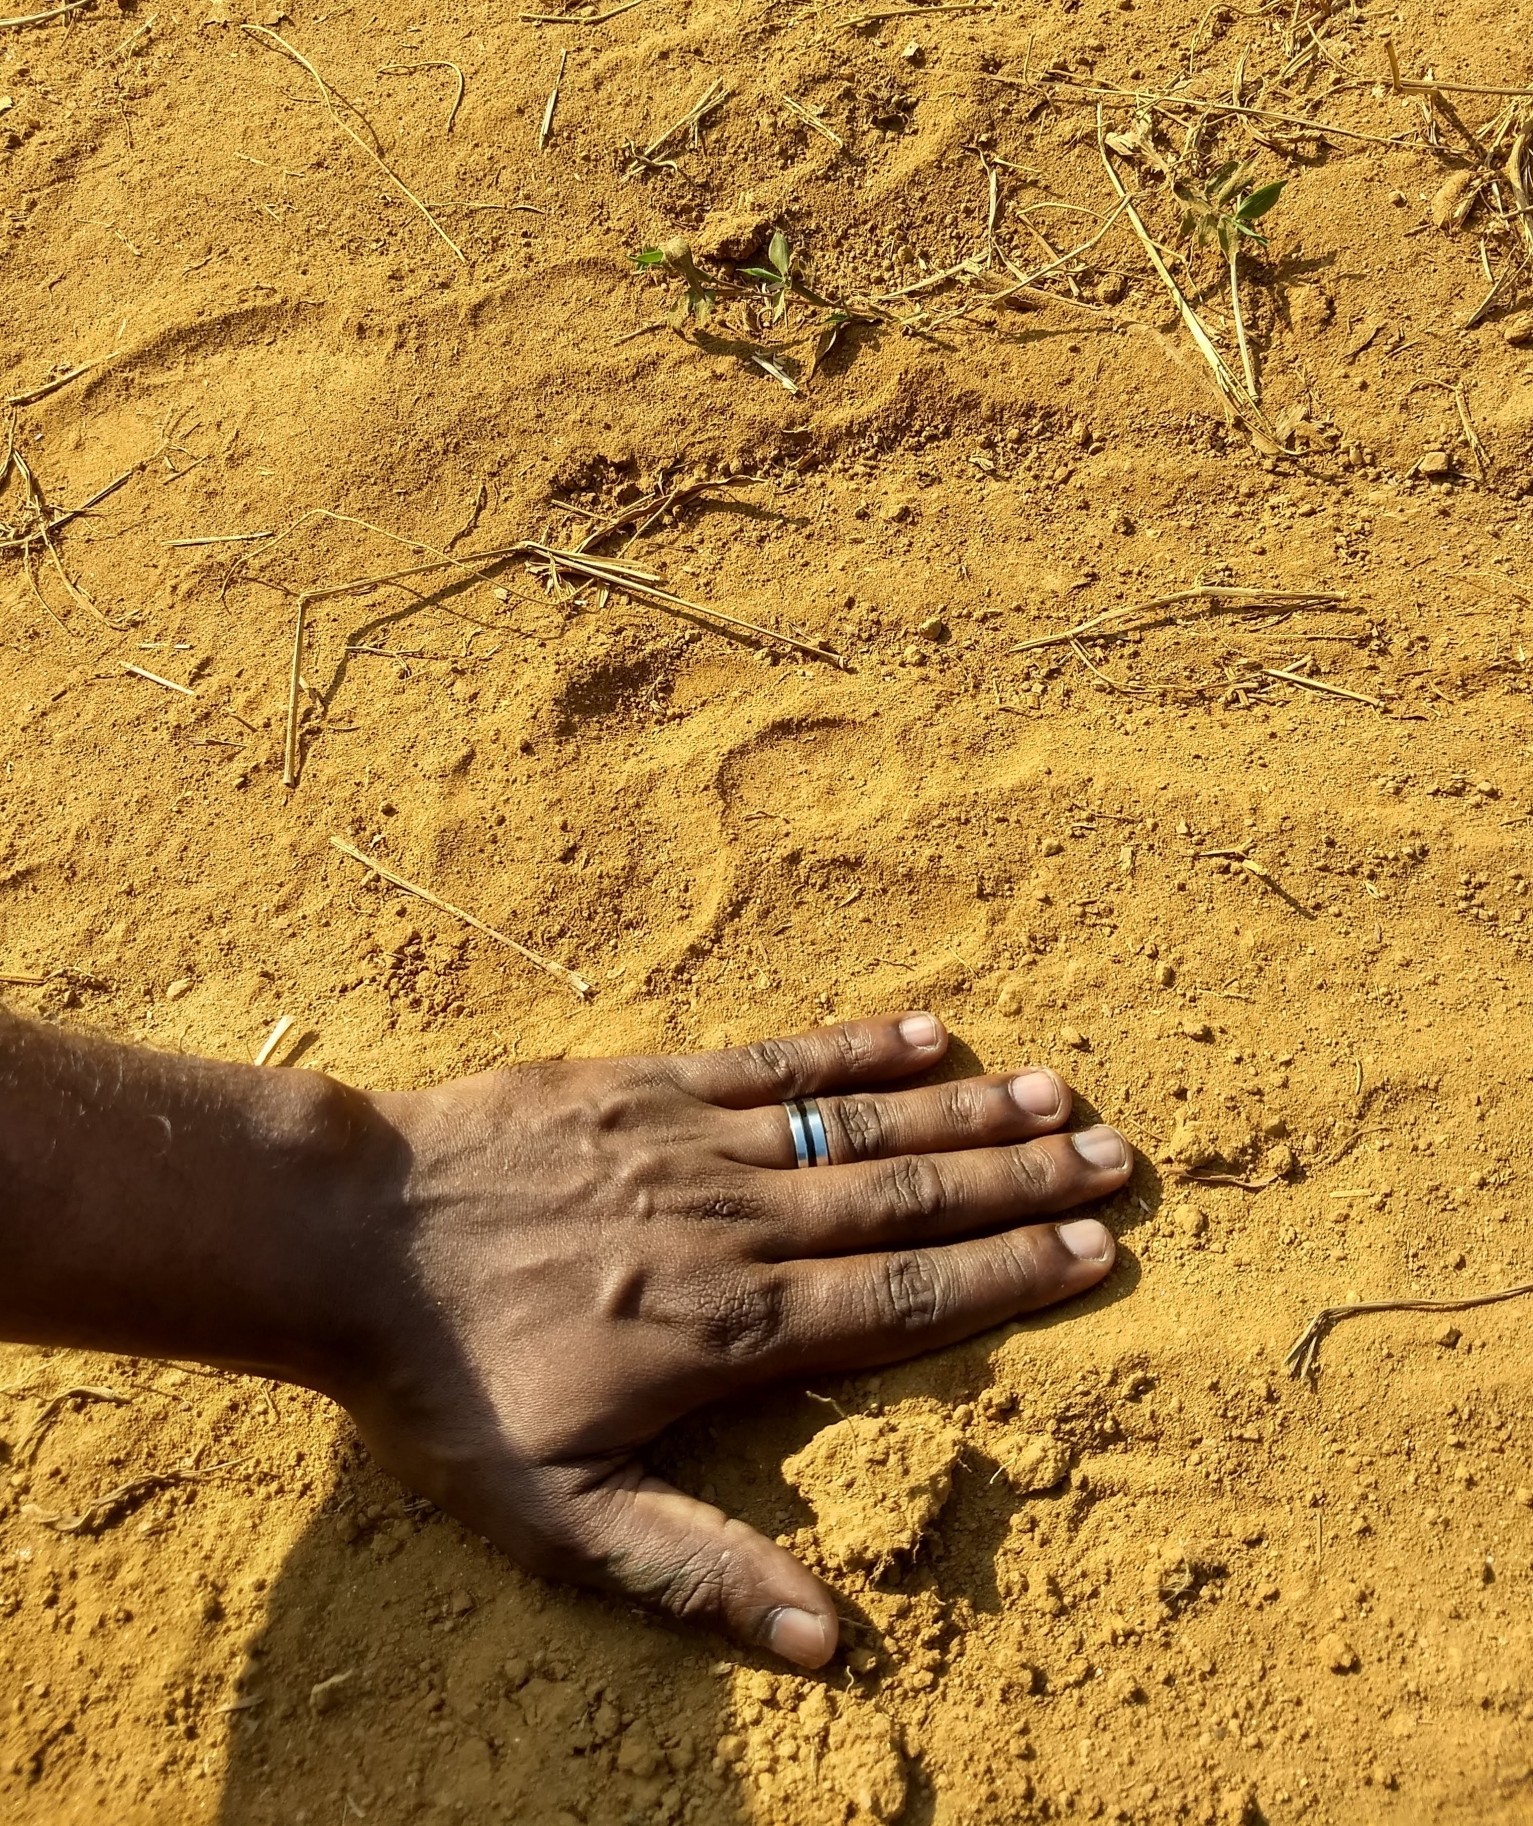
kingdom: Animalia
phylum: Chordata
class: Mammalia
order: Carnivora
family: Felidae
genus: Panthera
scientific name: Panthera tigris
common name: Tiger
